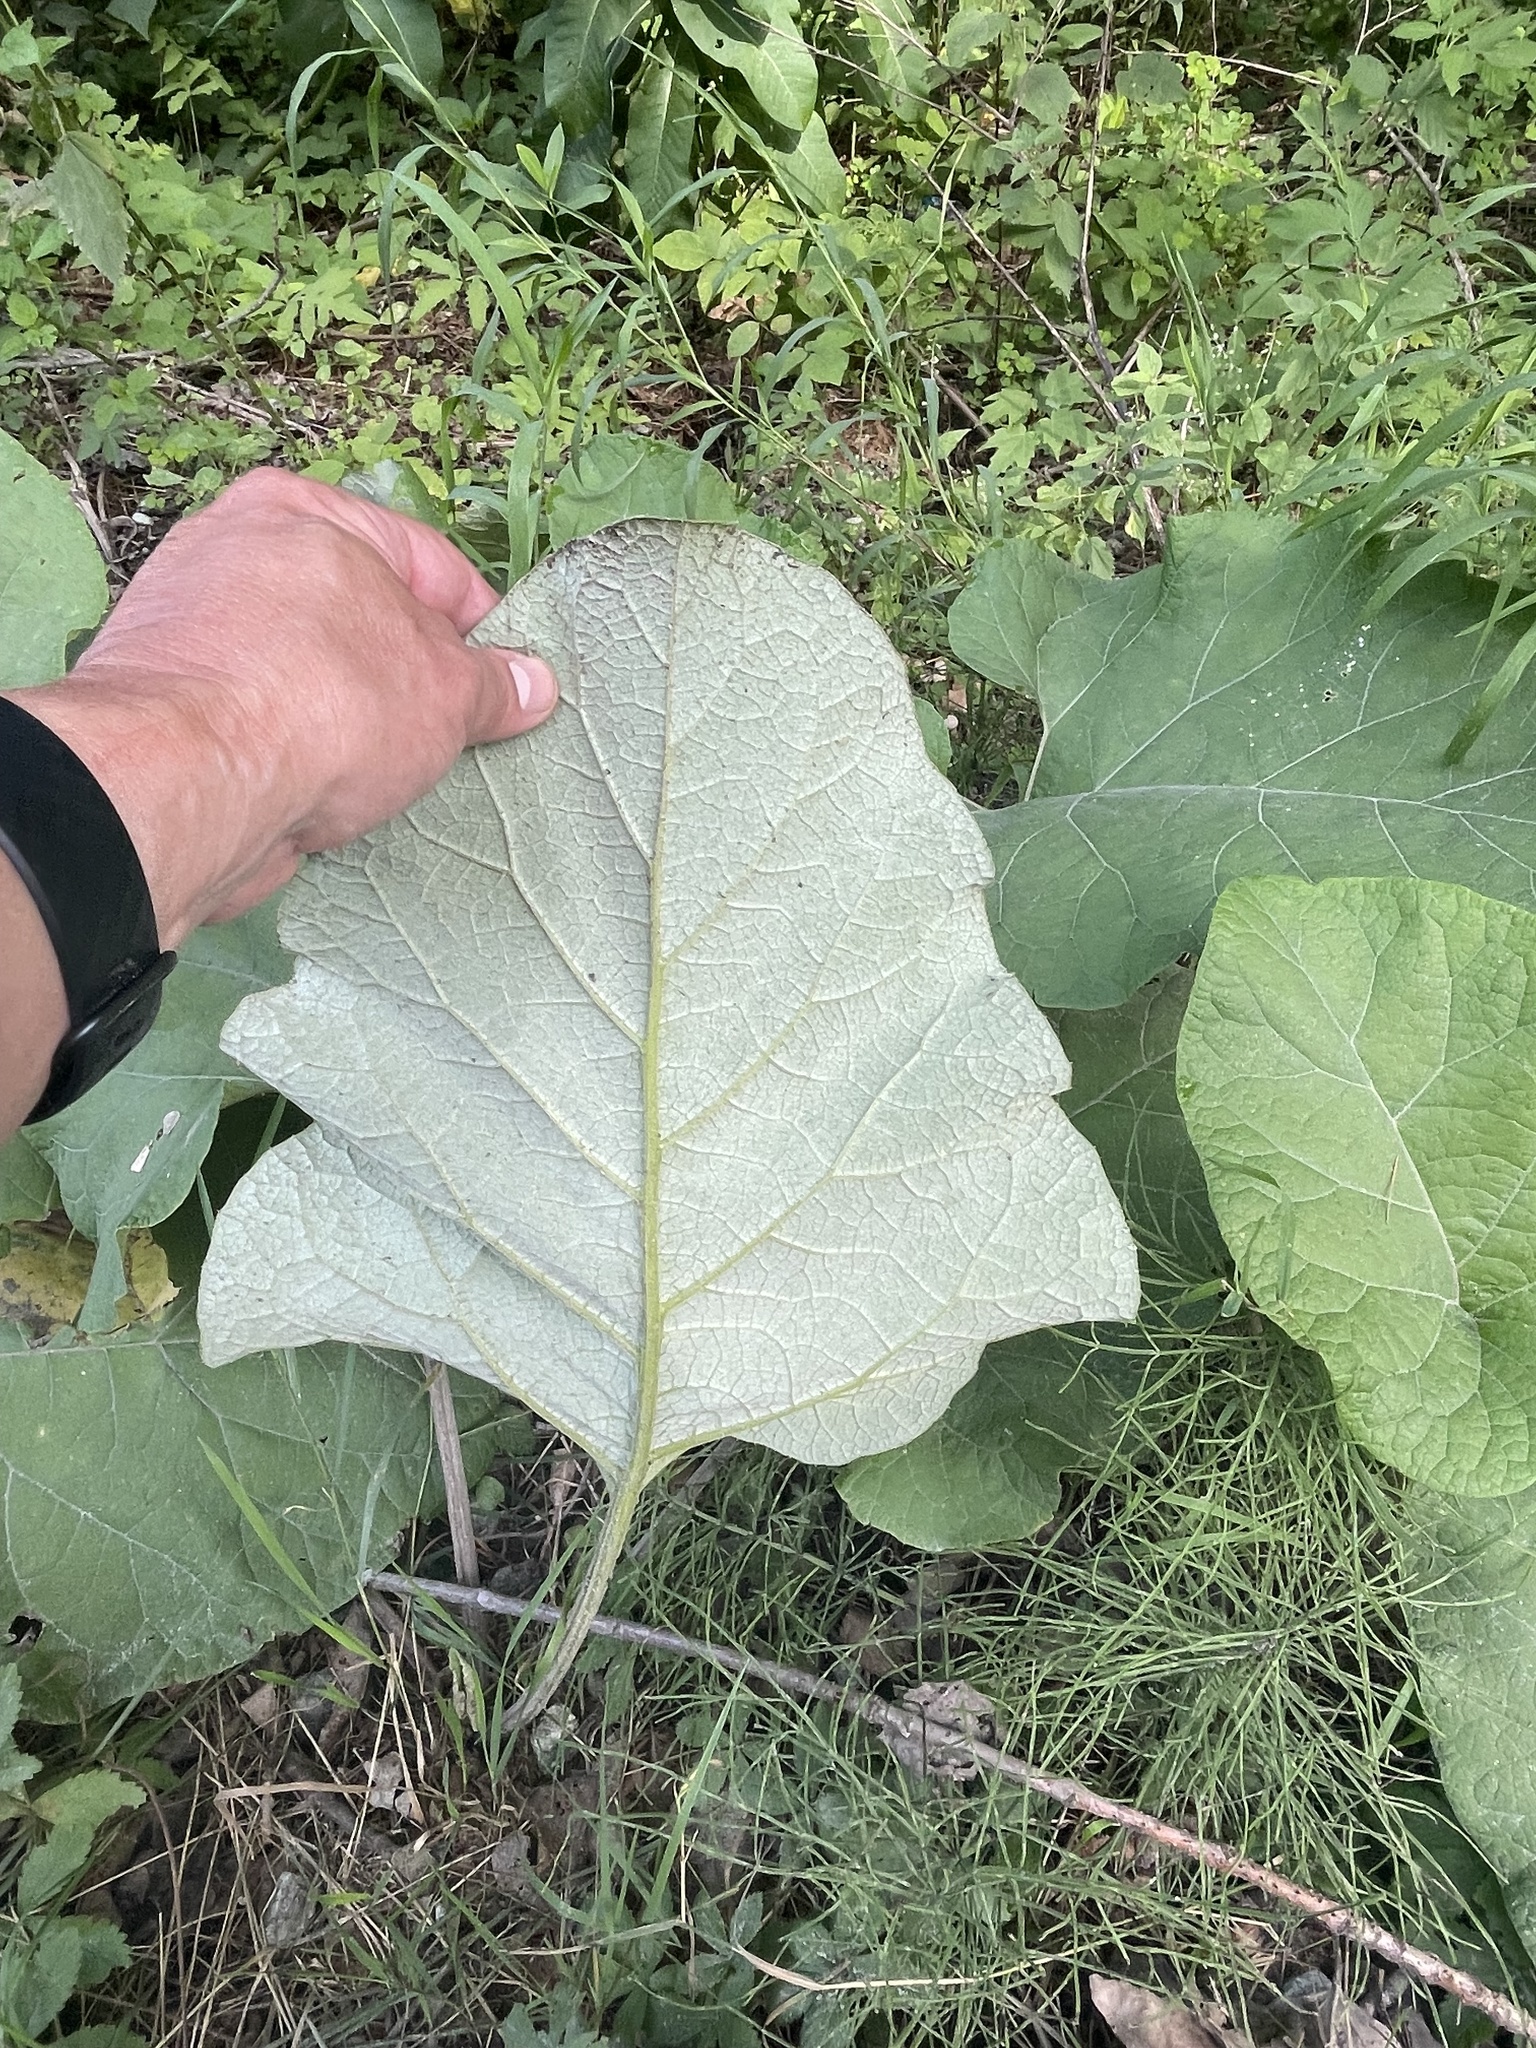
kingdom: Plantae
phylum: Tracheophyta
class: Magnoliopsida
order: Asterales
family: Asteraceae
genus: Arctium
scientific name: Arctium
